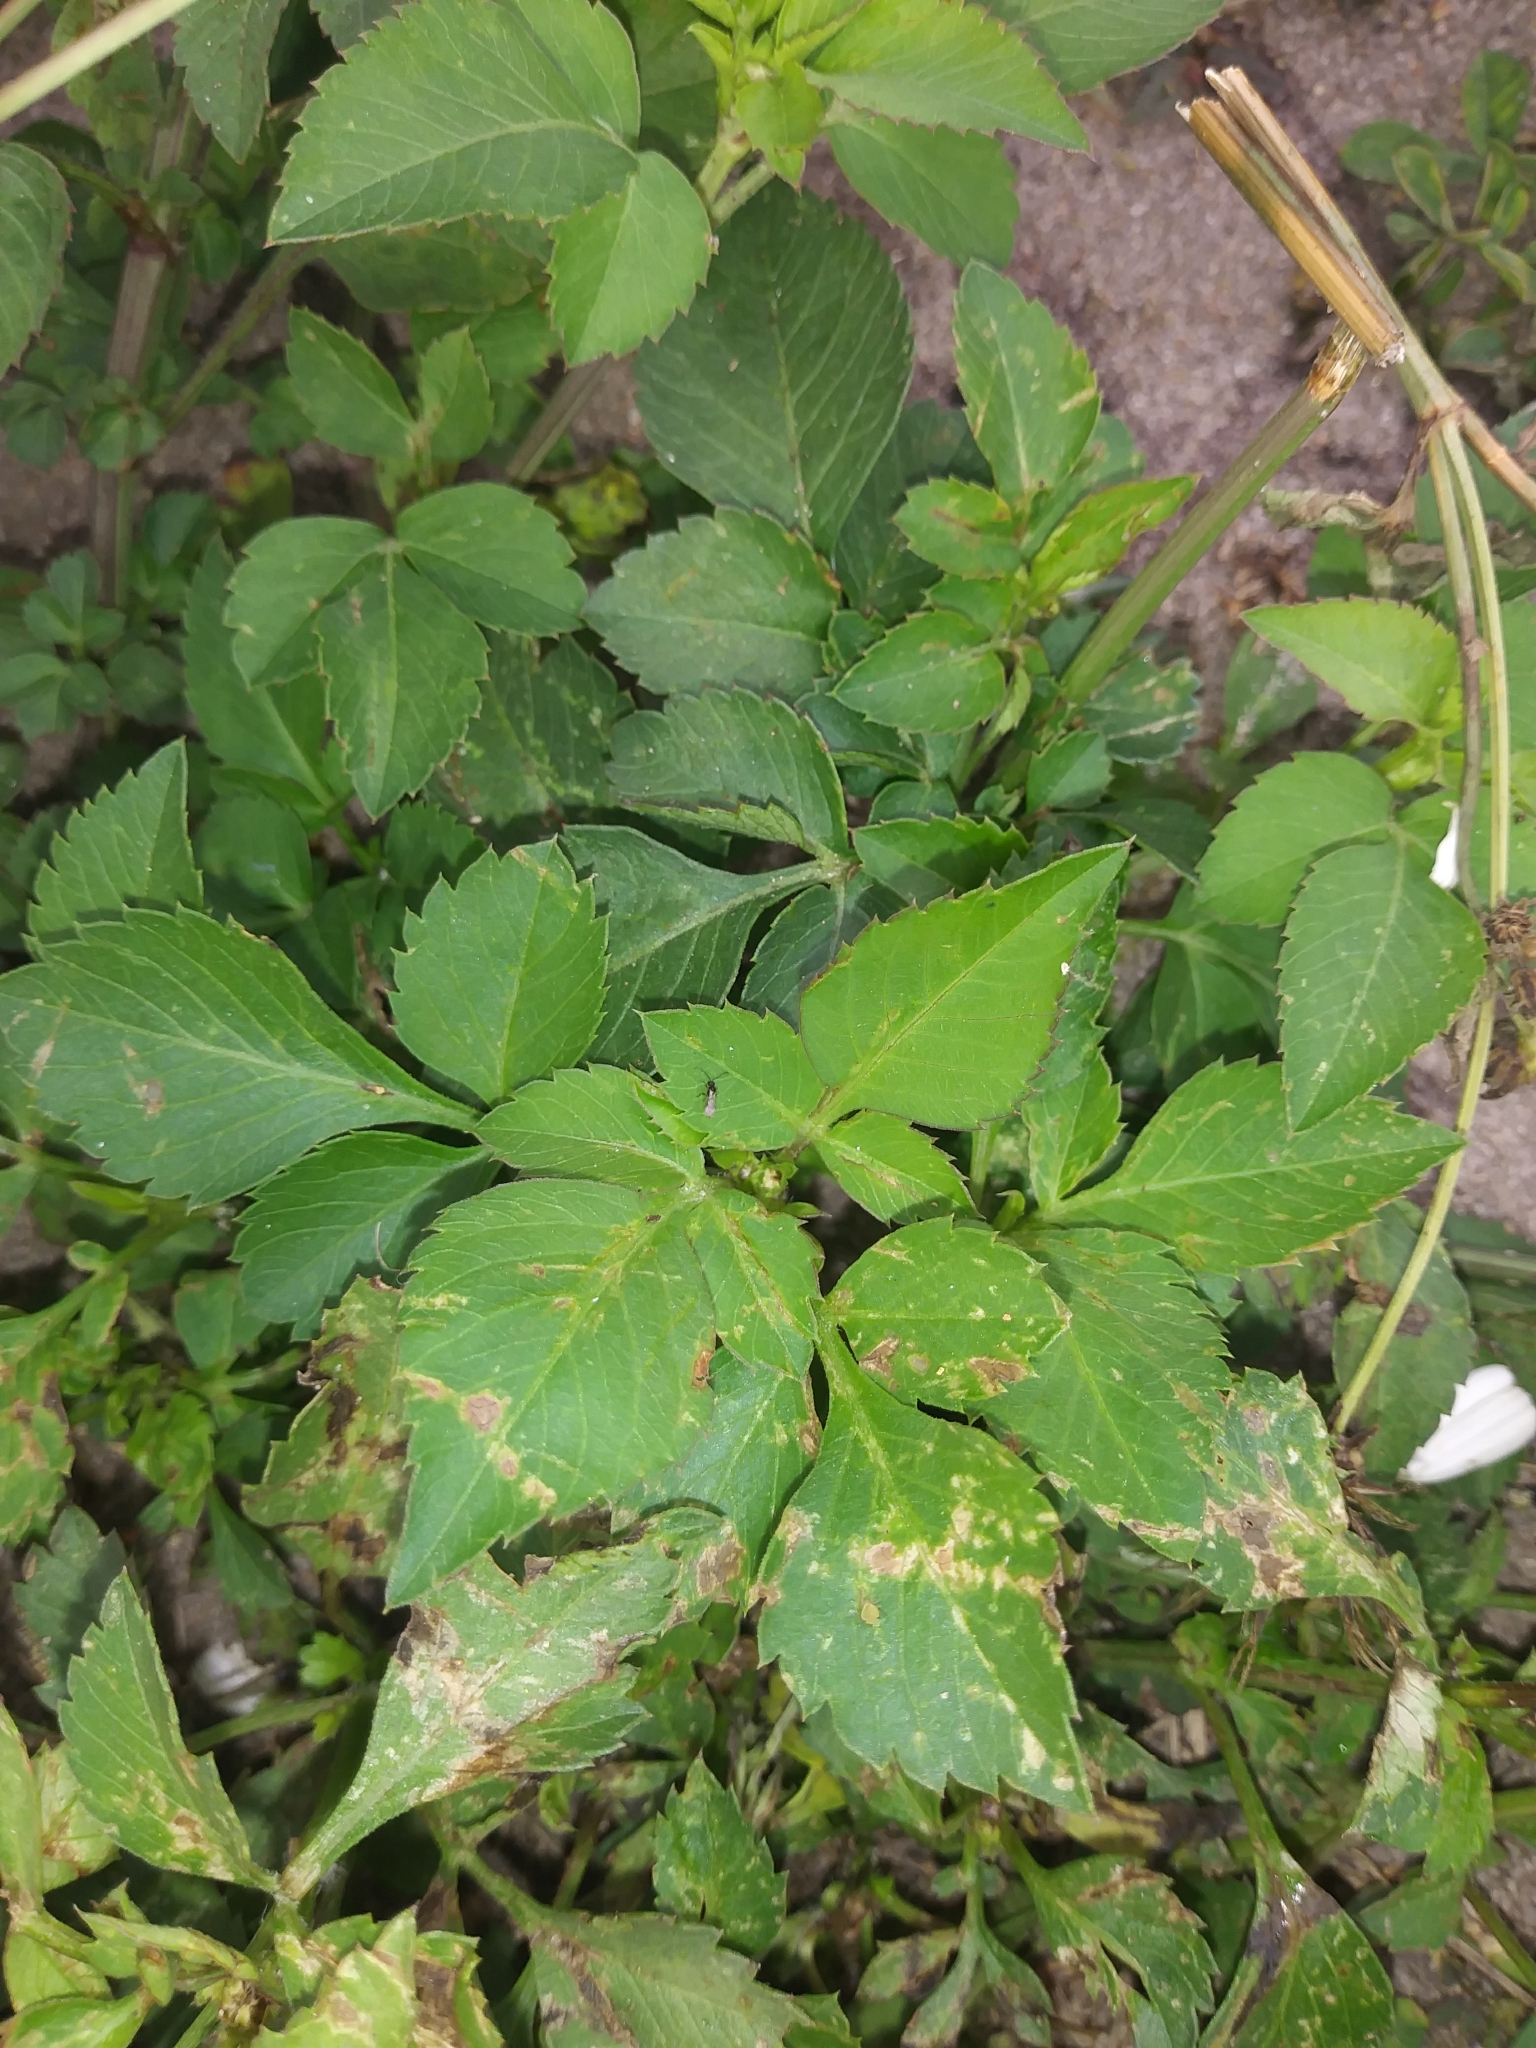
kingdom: Plantae
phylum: Tracheophyta
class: Magnoliopsida
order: Asterales
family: Asteraceae
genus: Bidens
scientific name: Bidens alba
